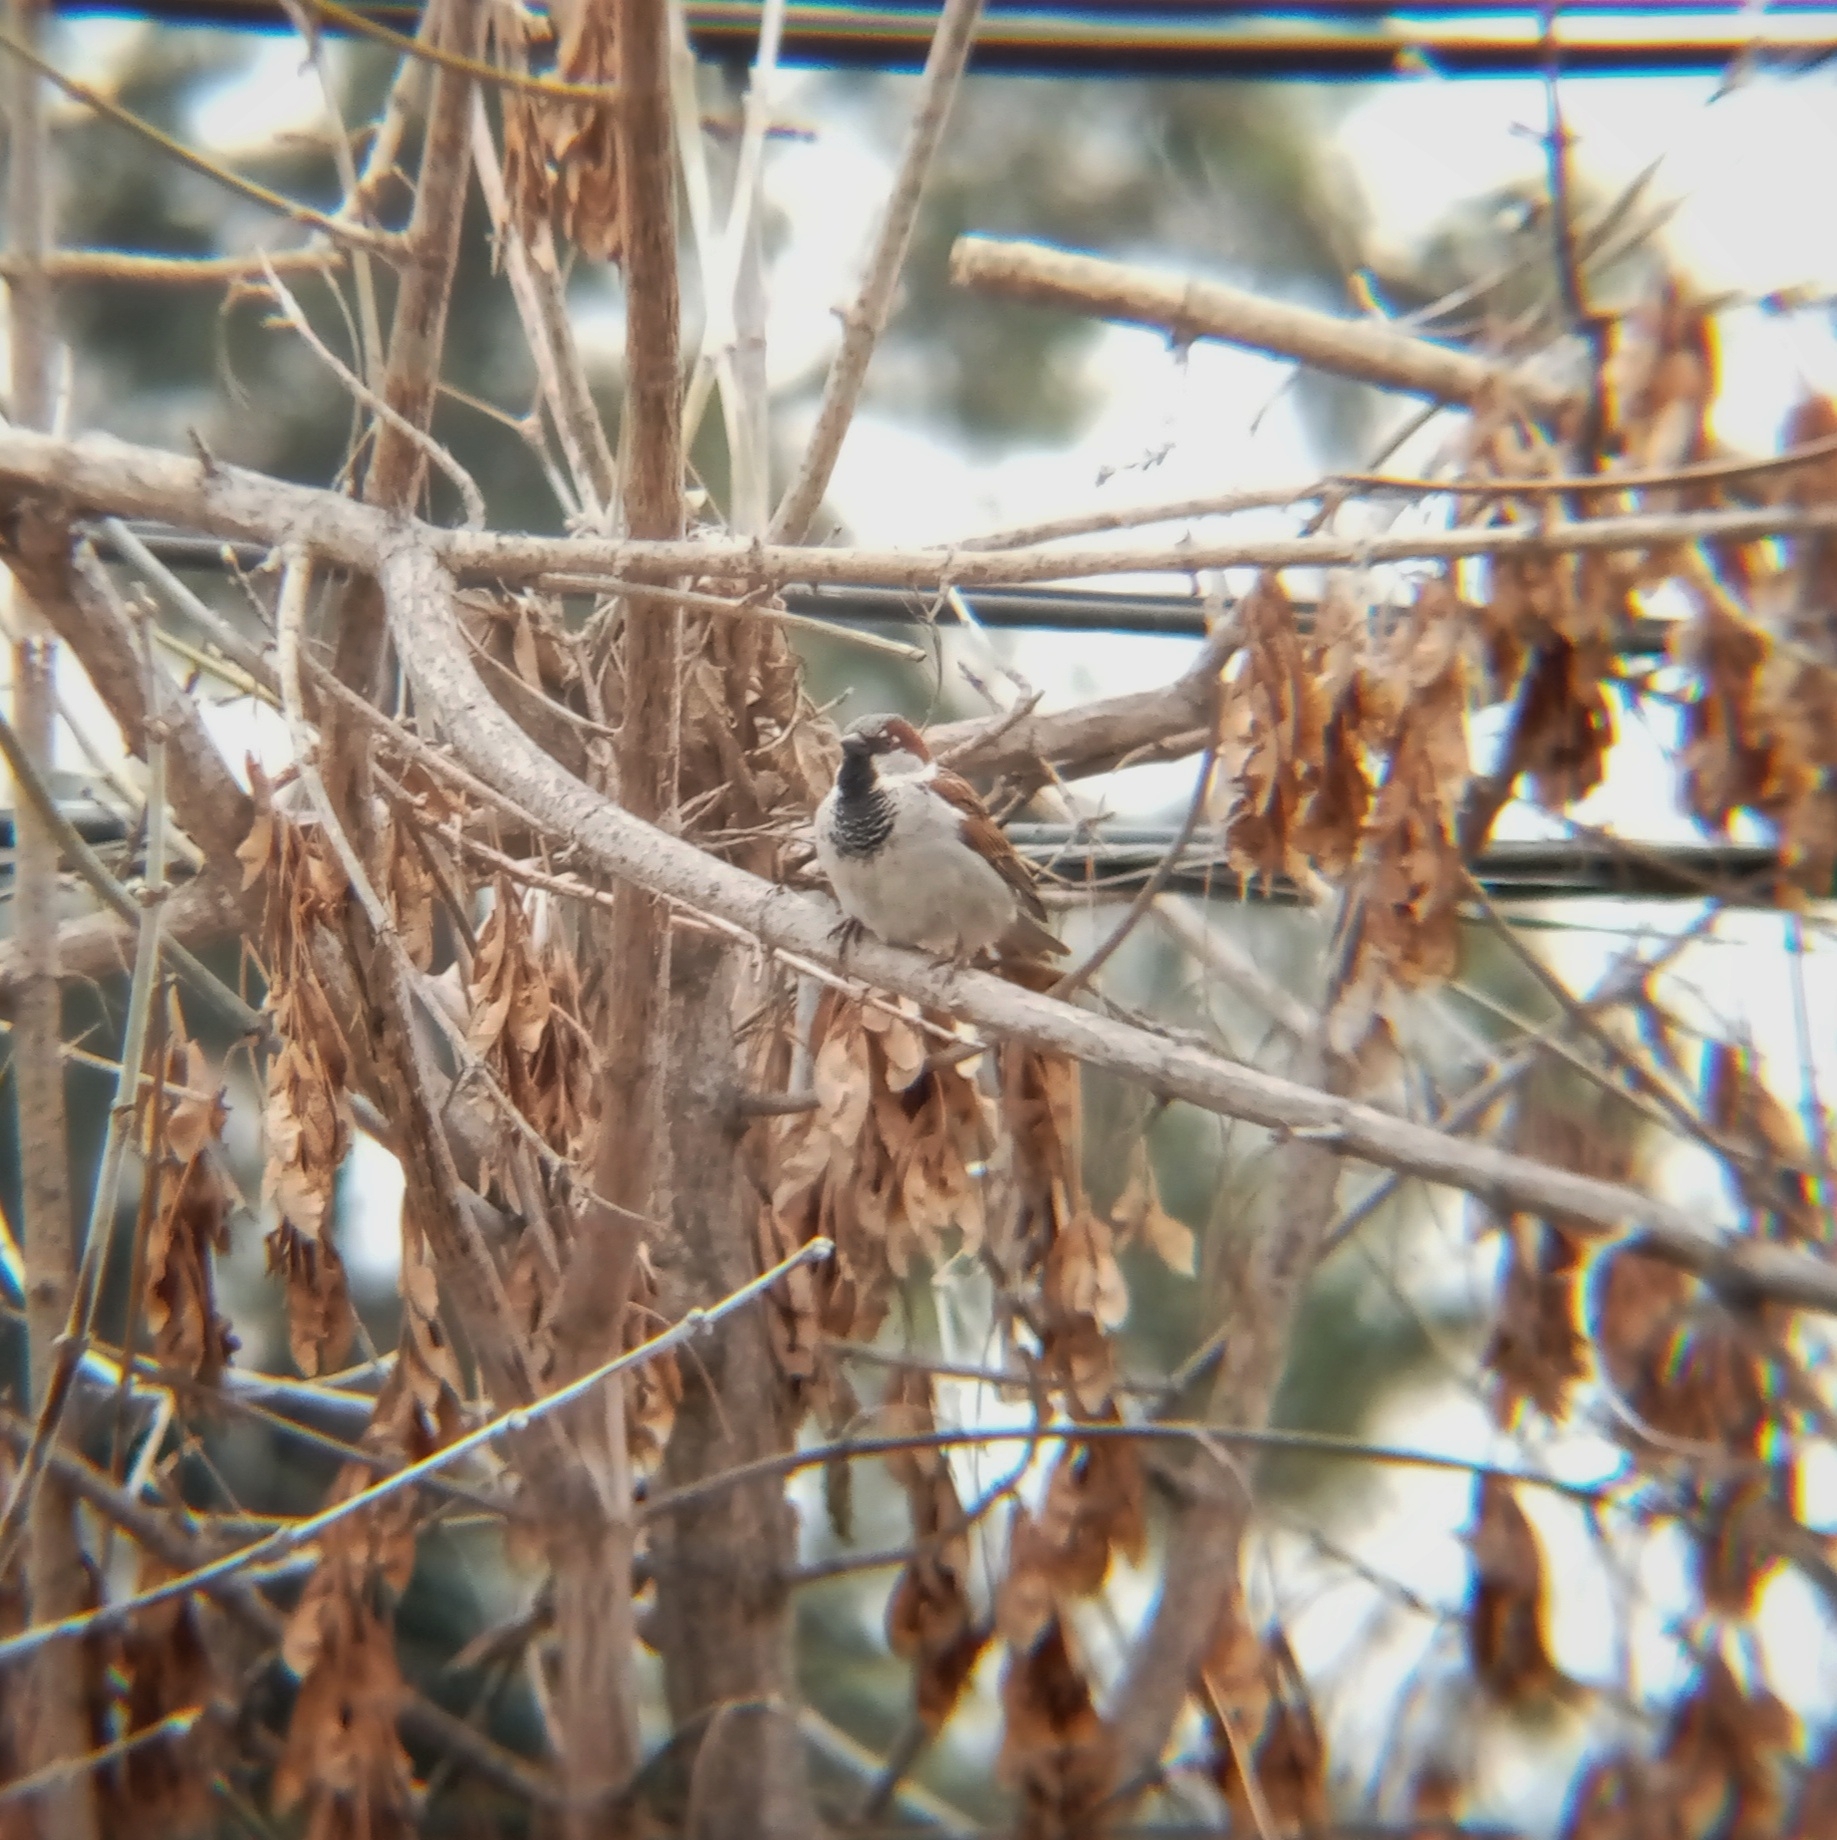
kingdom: Animalia
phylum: Chordata
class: Aves
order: Passeriformes
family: Passeridae
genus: Passer
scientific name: Passer domesticus
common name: House sparrow
